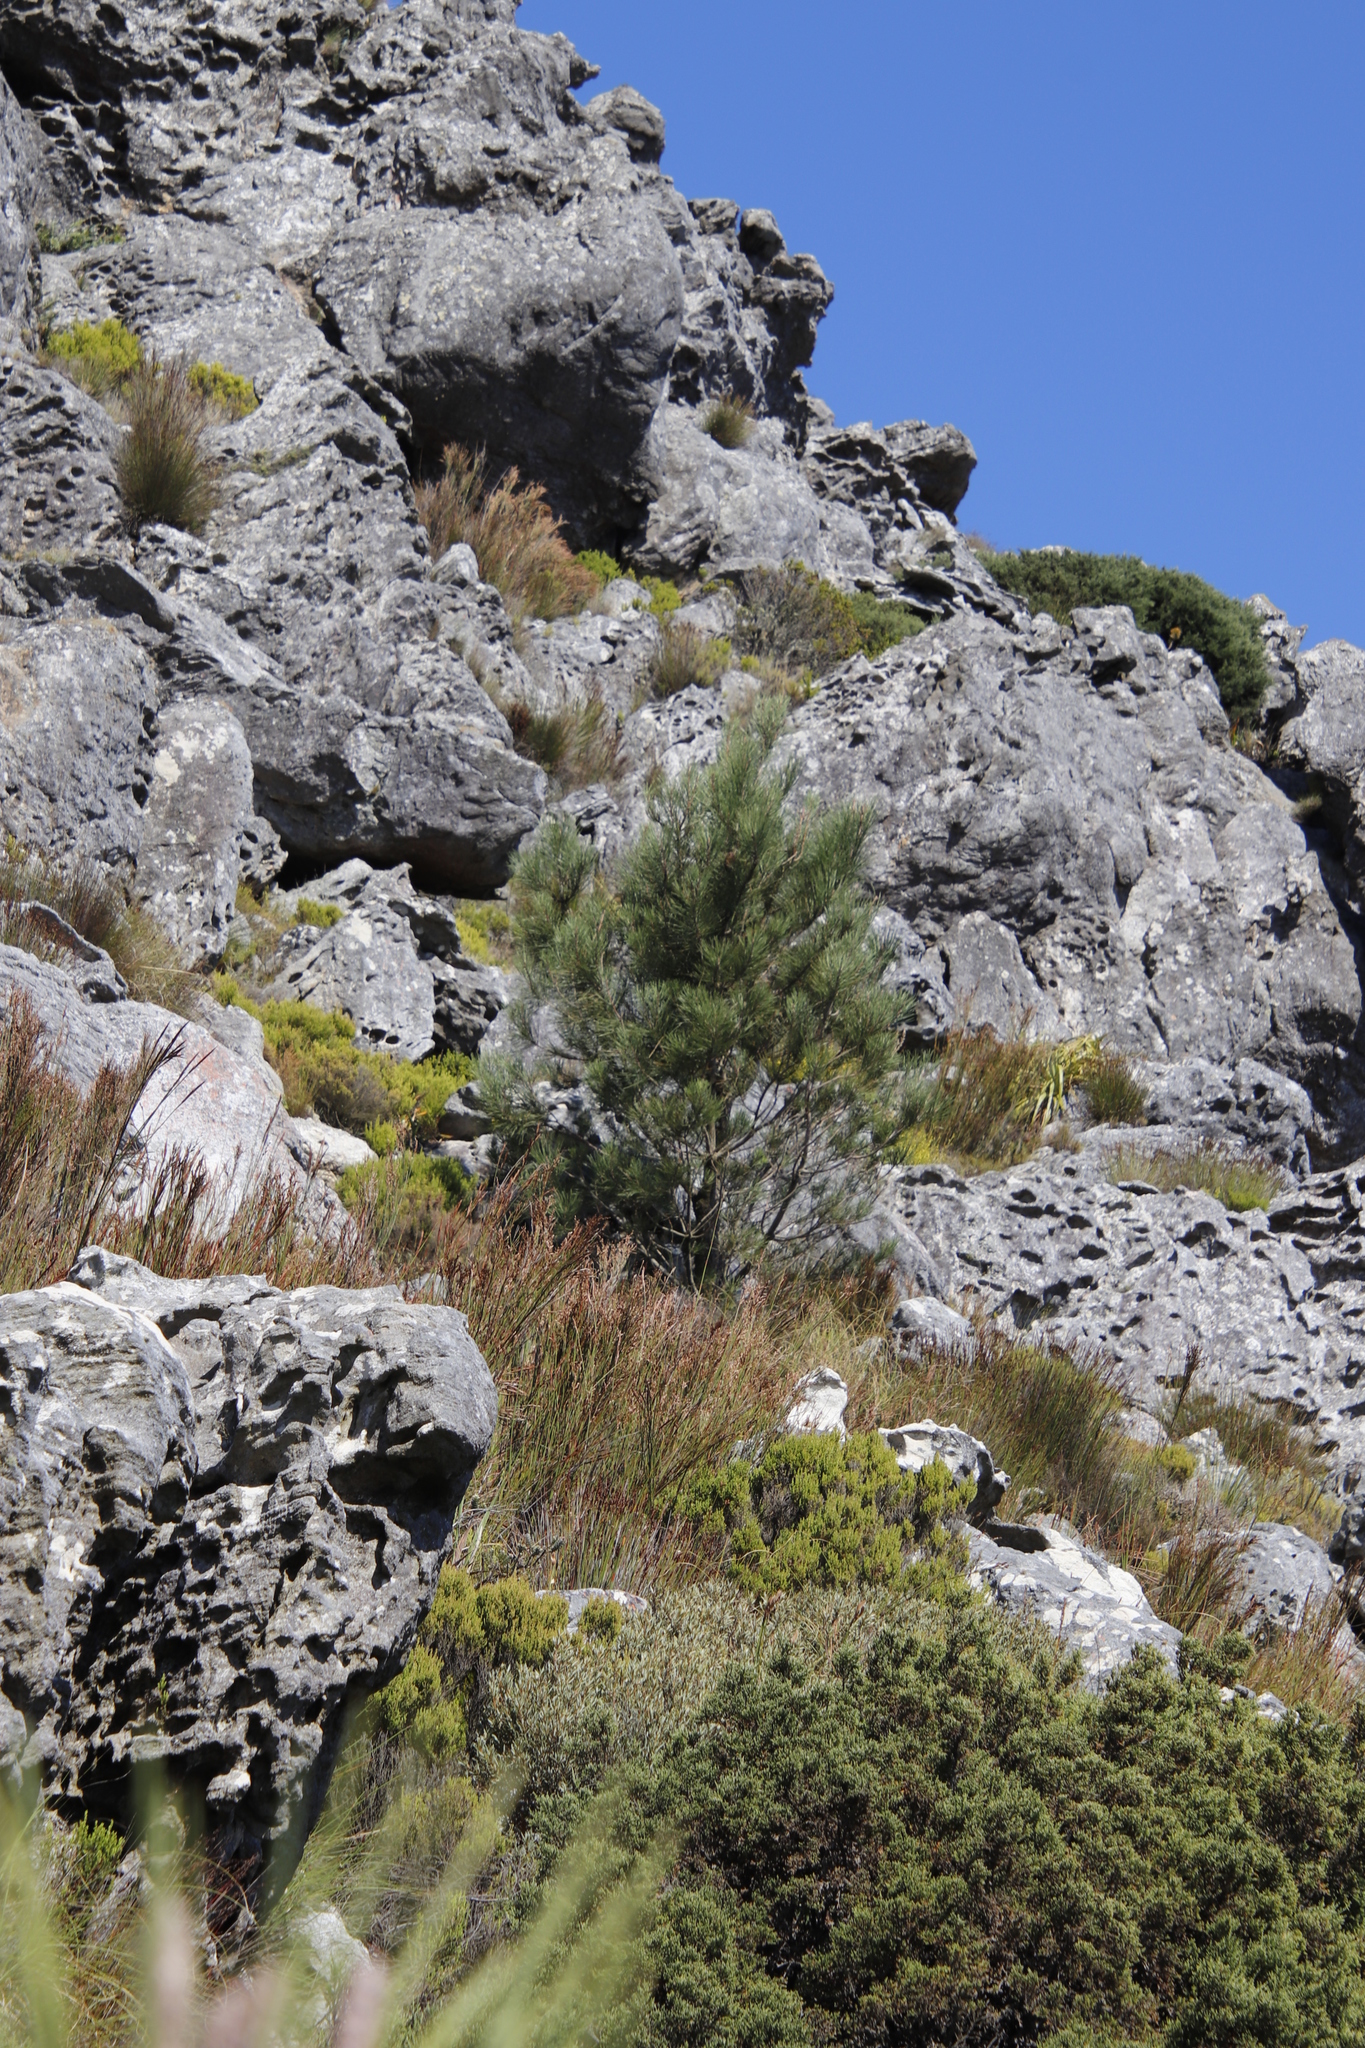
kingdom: Plantae
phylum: Tracheophyta
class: Pinopsida
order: Pinales
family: Pinaceae
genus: Pinus
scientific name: Pinus pinaster
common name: Maritime pine
